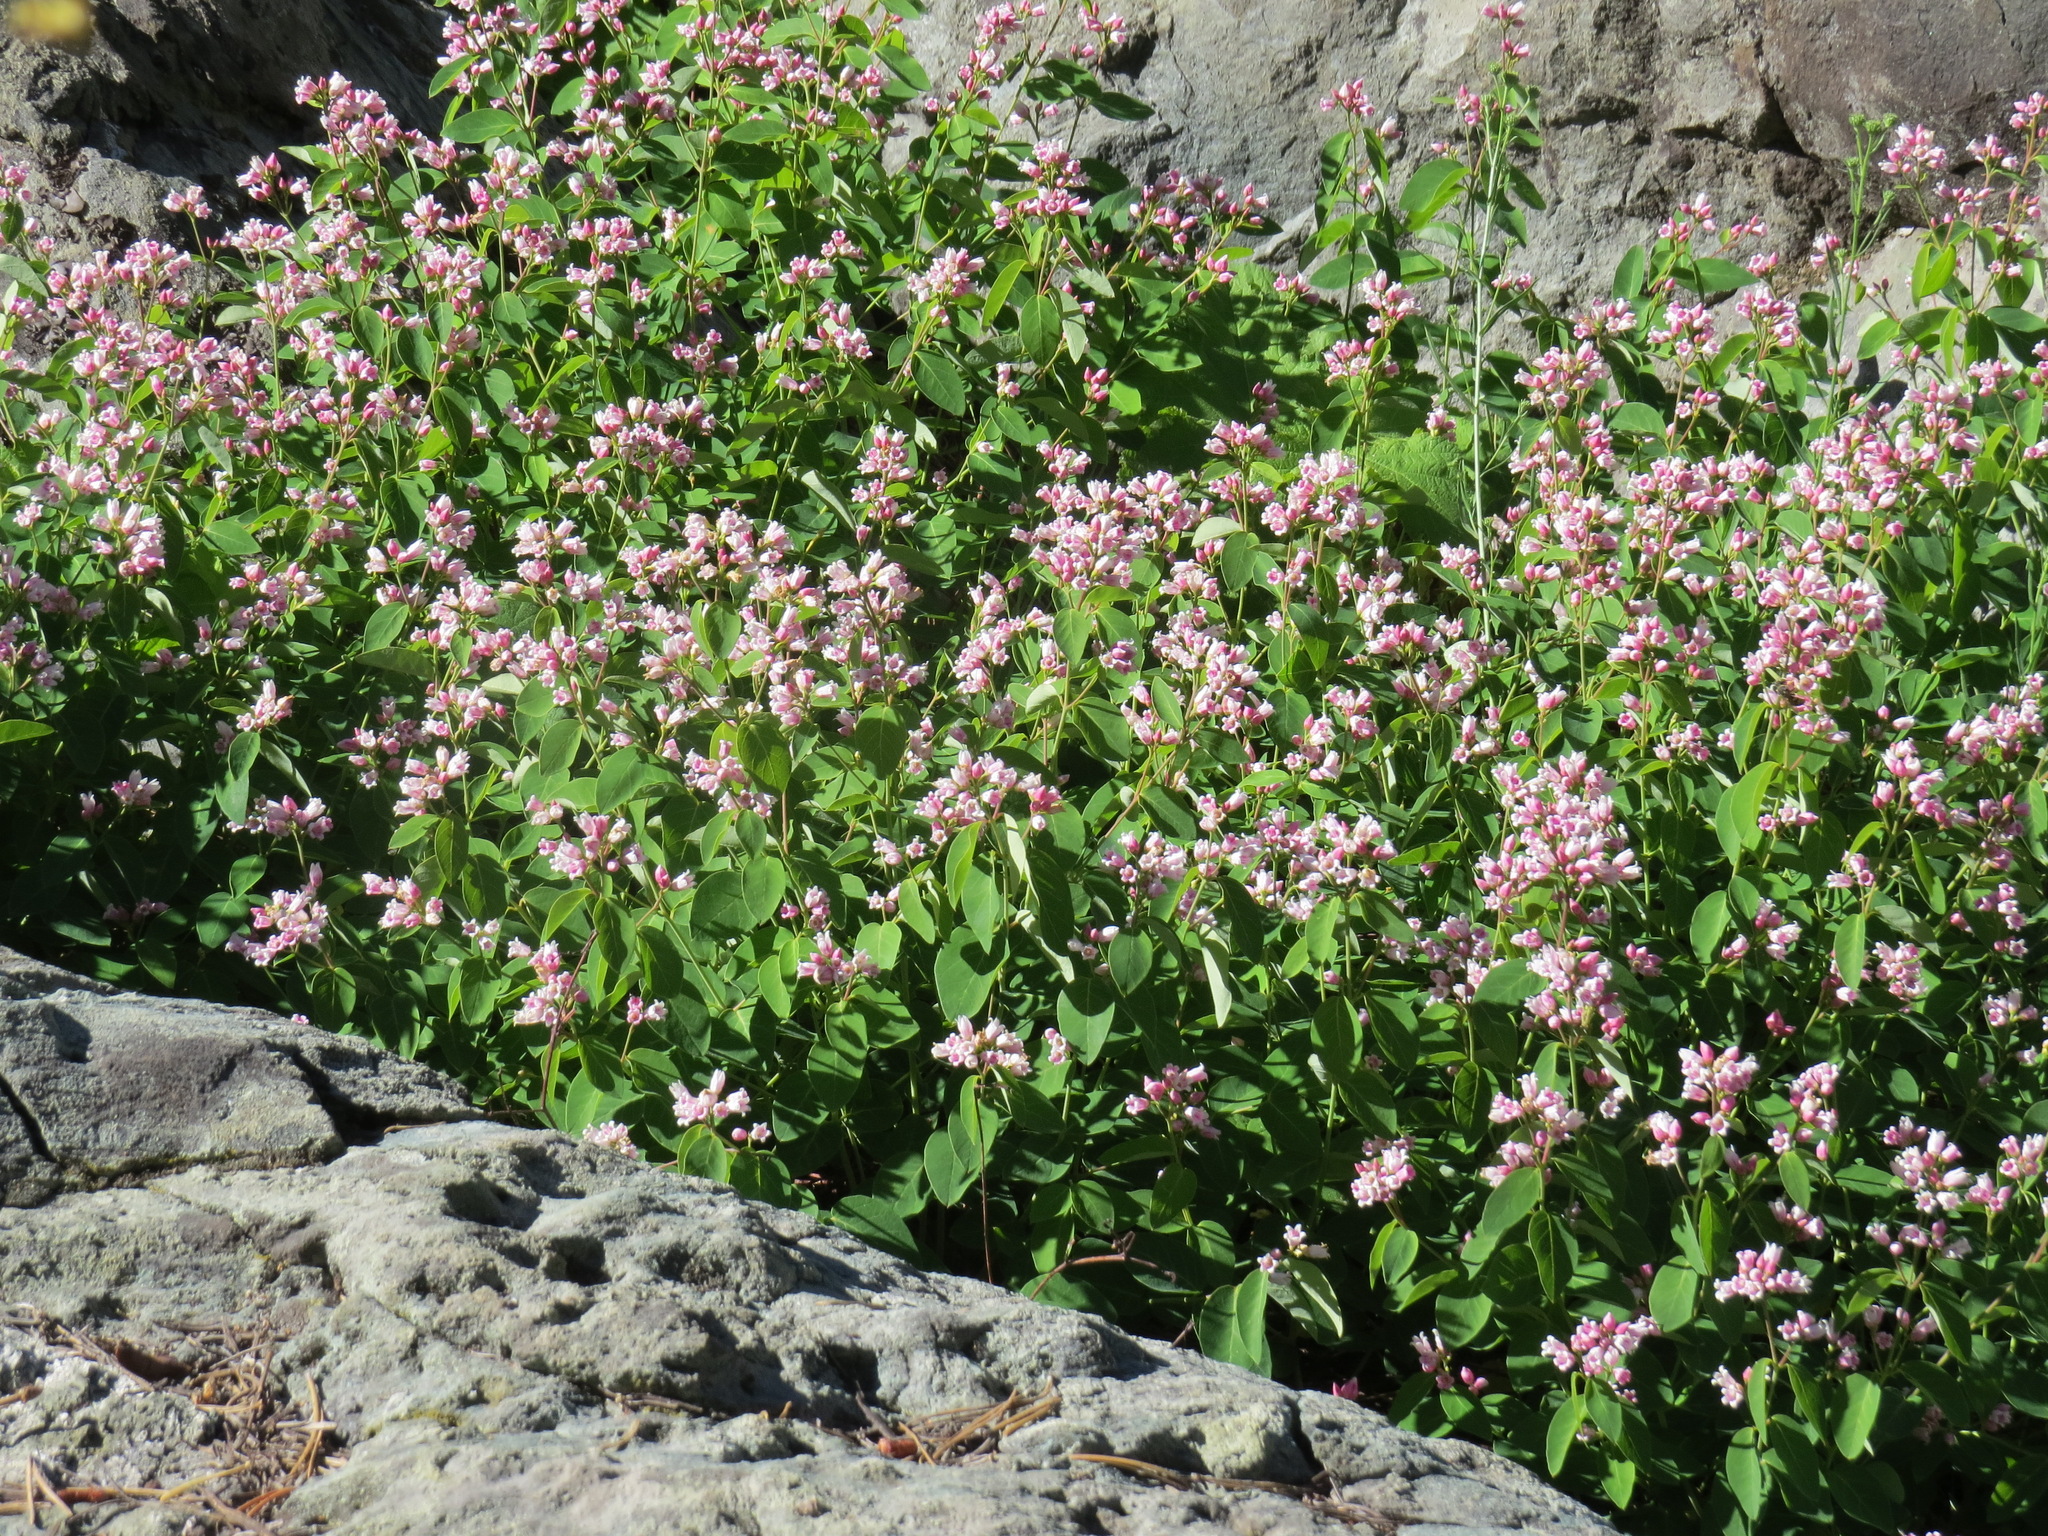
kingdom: Plantae
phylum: Tracheophyta
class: Magnoliopsida
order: Gentianales
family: Apocynaceae
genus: Apocynum
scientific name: Apocynum androsaemifolium
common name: Spreading dogbane
